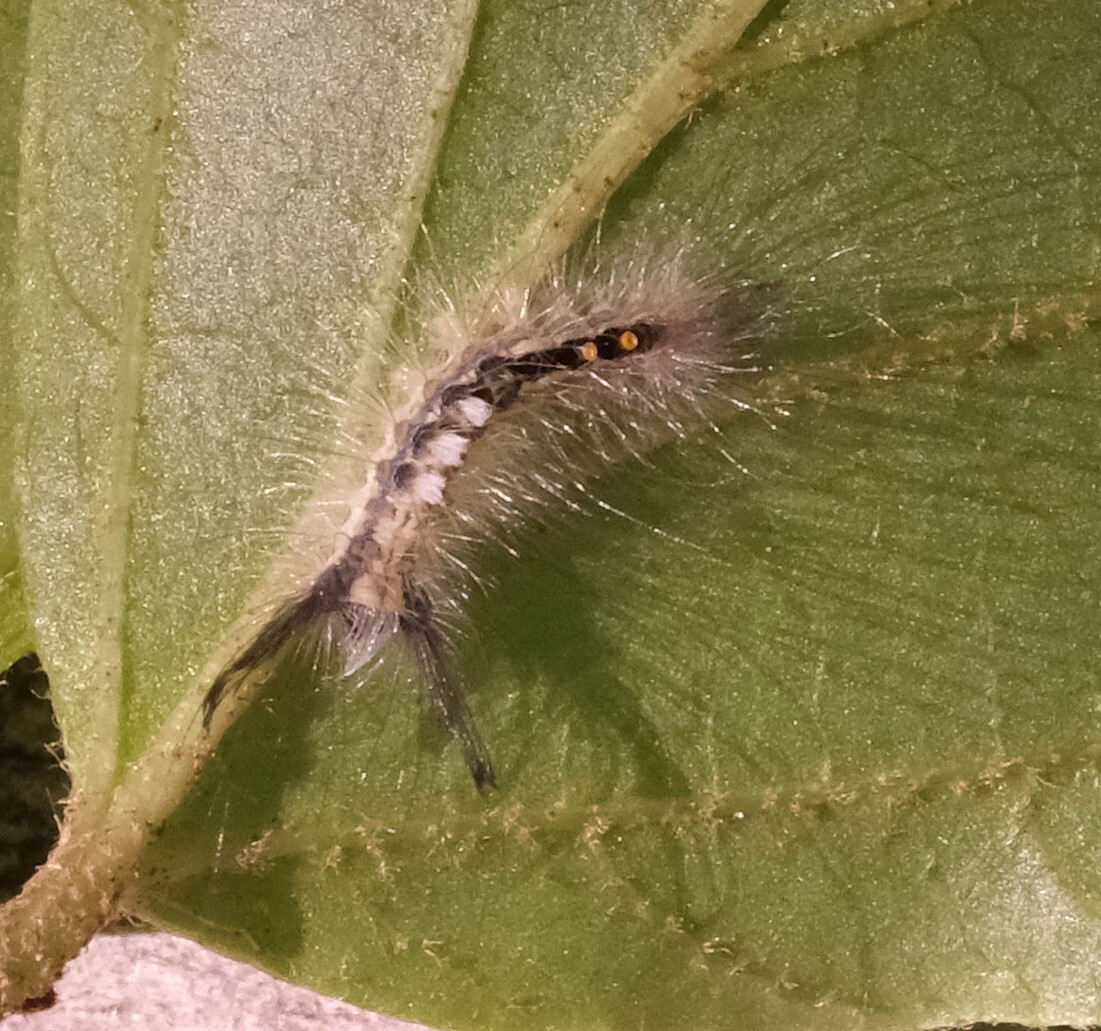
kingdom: Animalia
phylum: Arthropoda
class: Insecta
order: Lepidoptera
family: Erebidae
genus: Orgyia
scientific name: Orgyia leucostigma
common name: White-marked tussock moth
